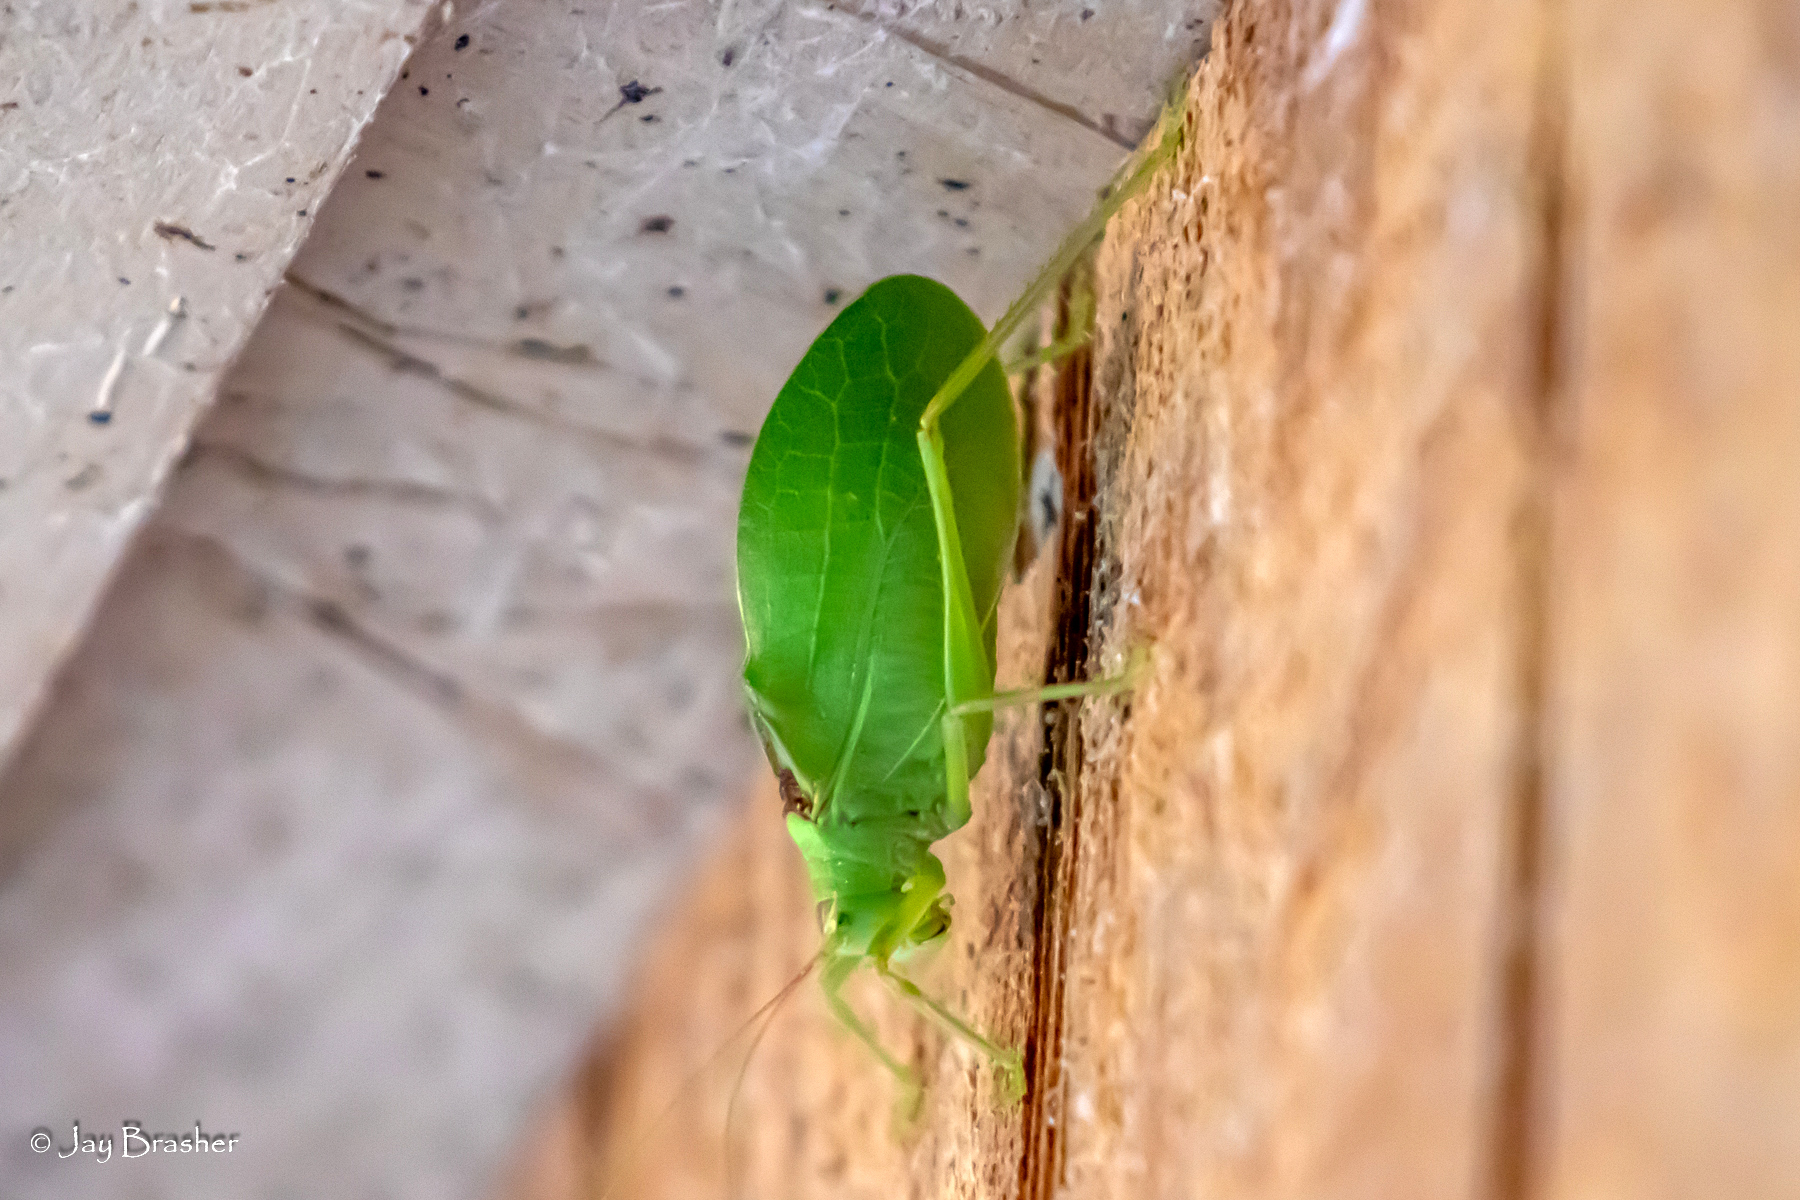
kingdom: Animalia
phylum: Arthropoda
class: Insecta
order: Orthoptera
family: Tettigoniidae
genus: Pterophylla
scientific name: Pterophylla camellifolia
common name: Common true katydid
